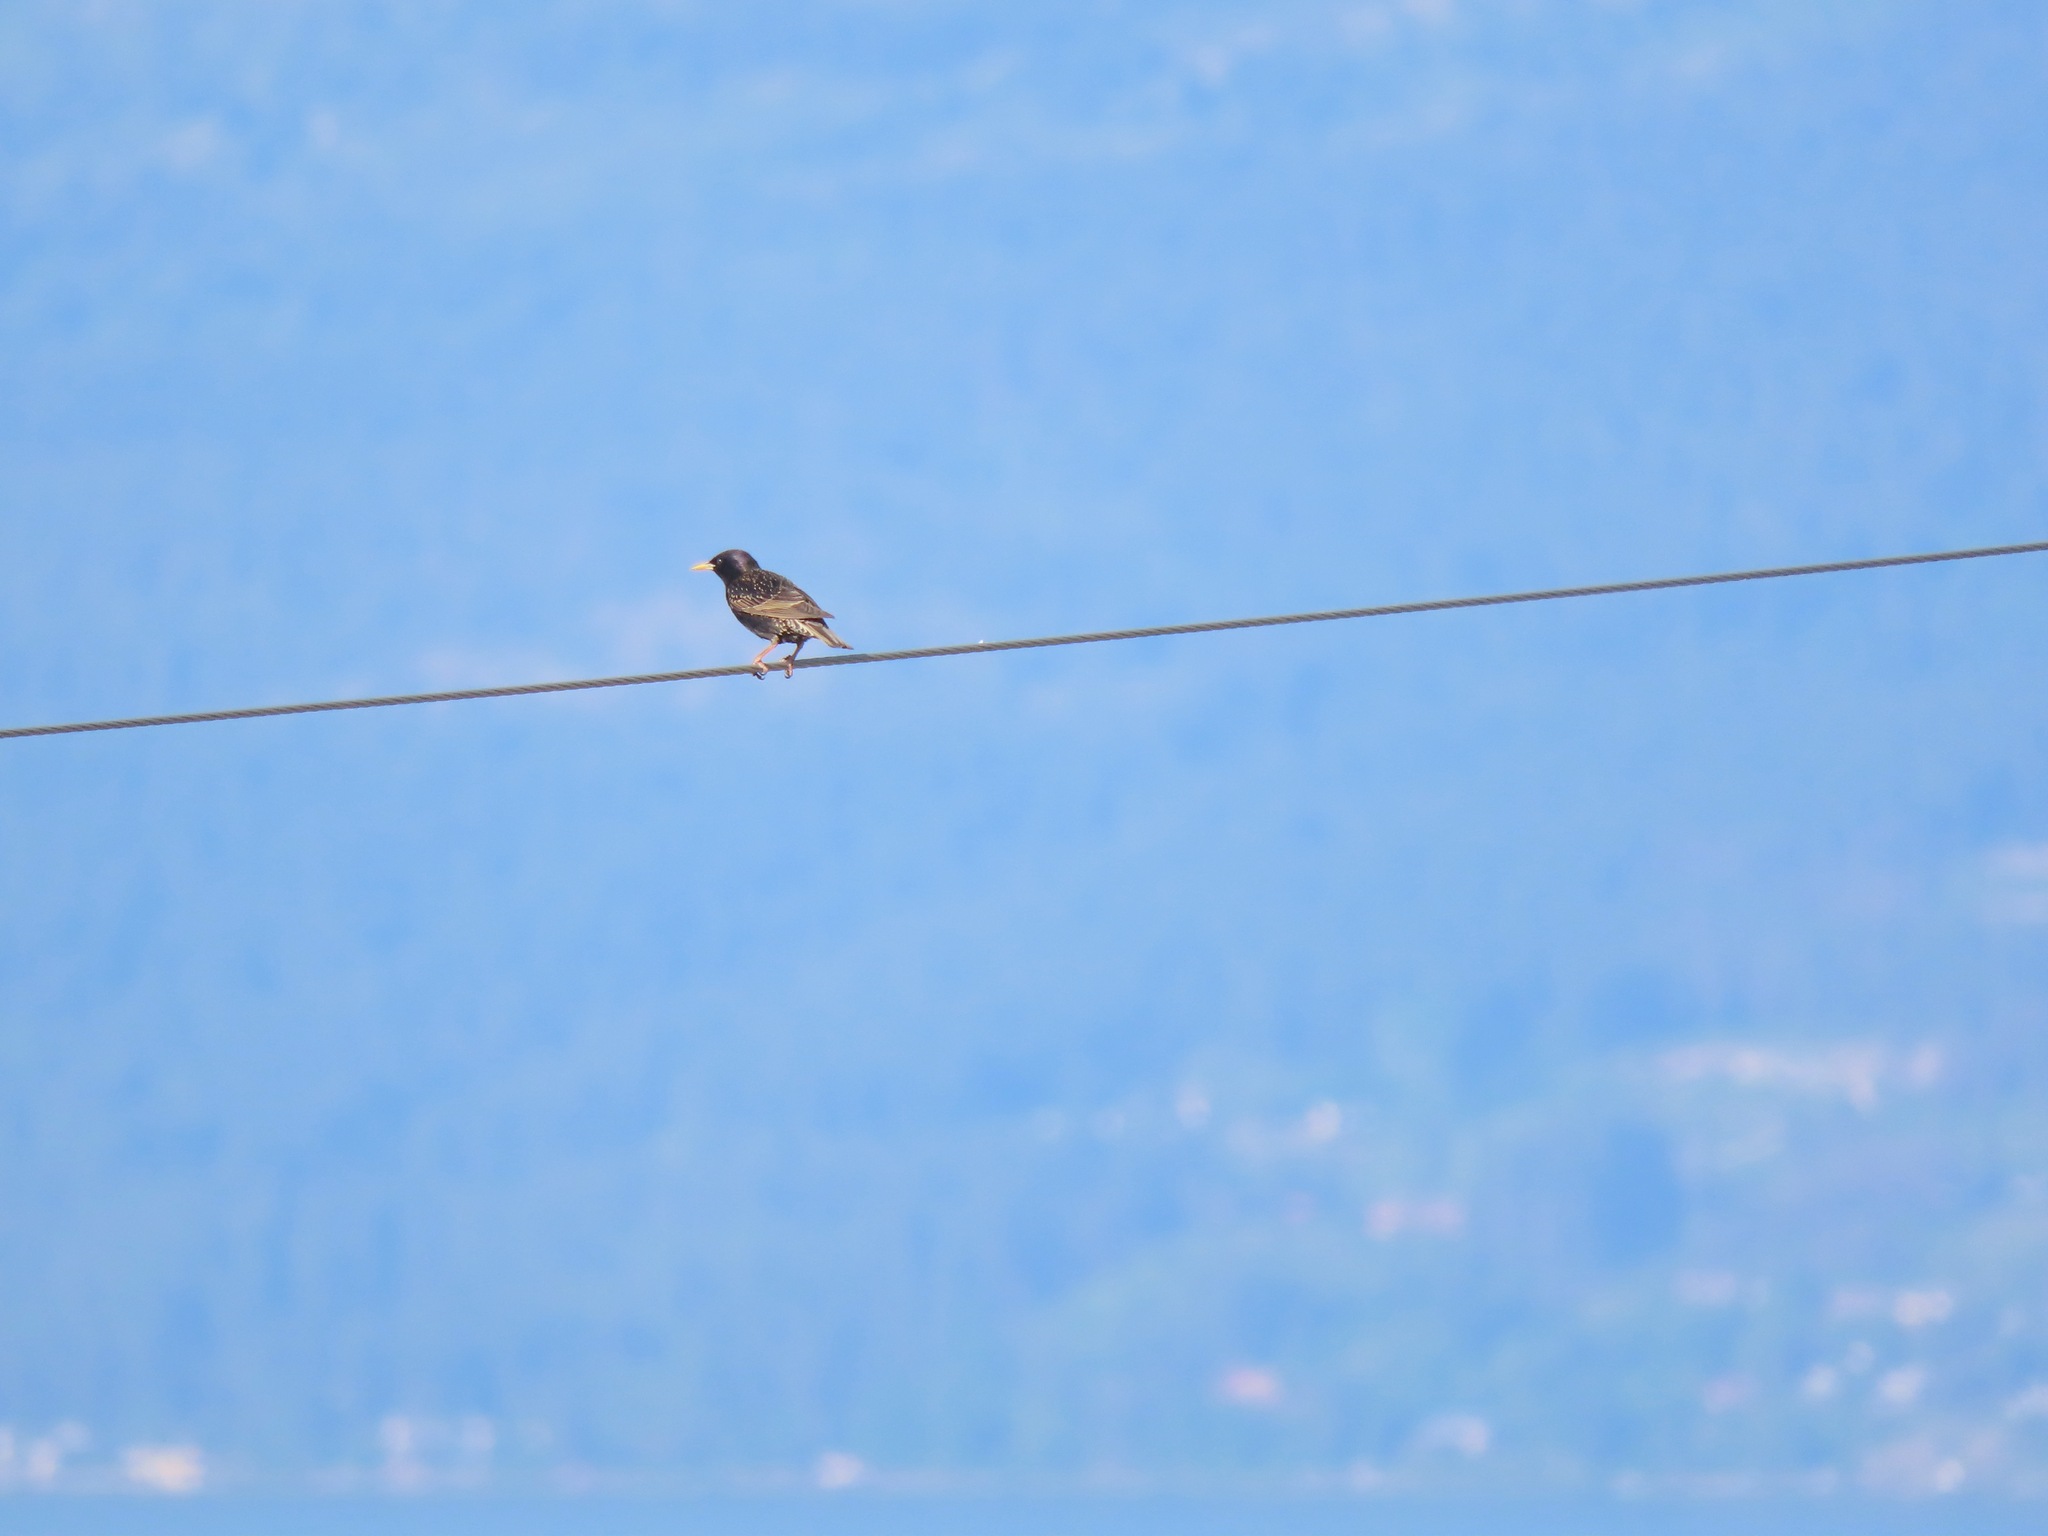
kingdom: Animalia
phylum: Chordata
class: Aves
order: Passeriformes
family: Sturnidae
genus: Sturnus
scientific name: Sturnus vulgaris
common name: Common starling
